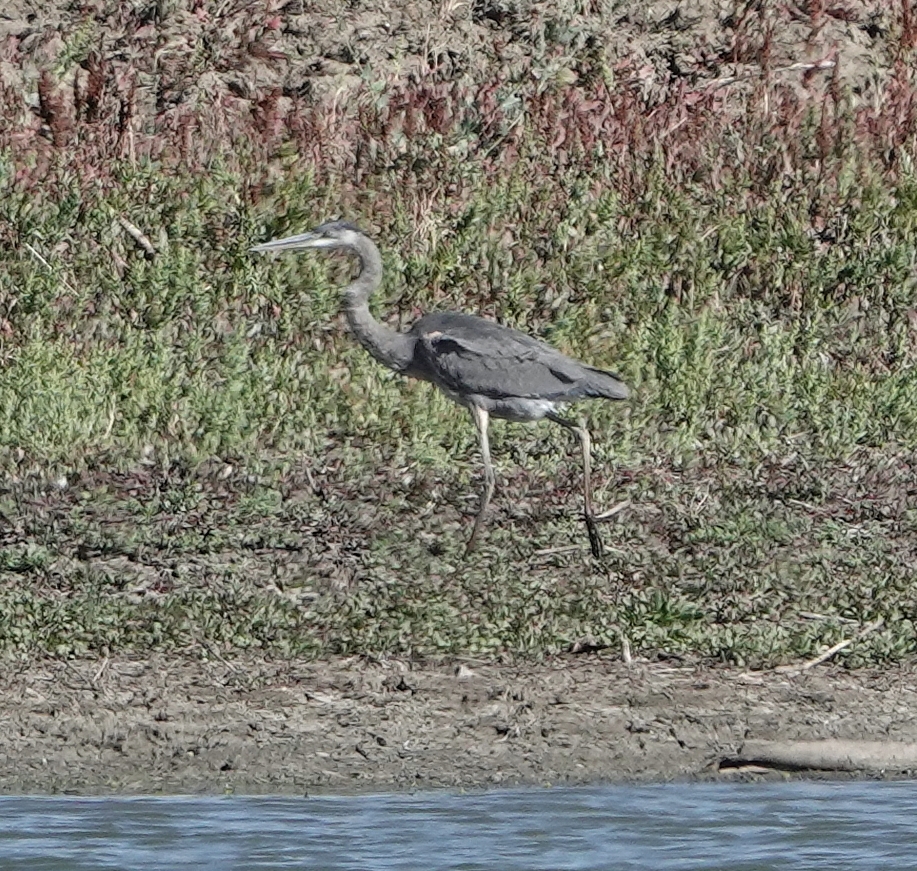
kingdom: Animalia
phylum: Chordata
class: Aves
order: Pelecaniformes
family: Ardeidae
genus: Ardea
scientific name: Ardea herodias
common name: Great blue heron
